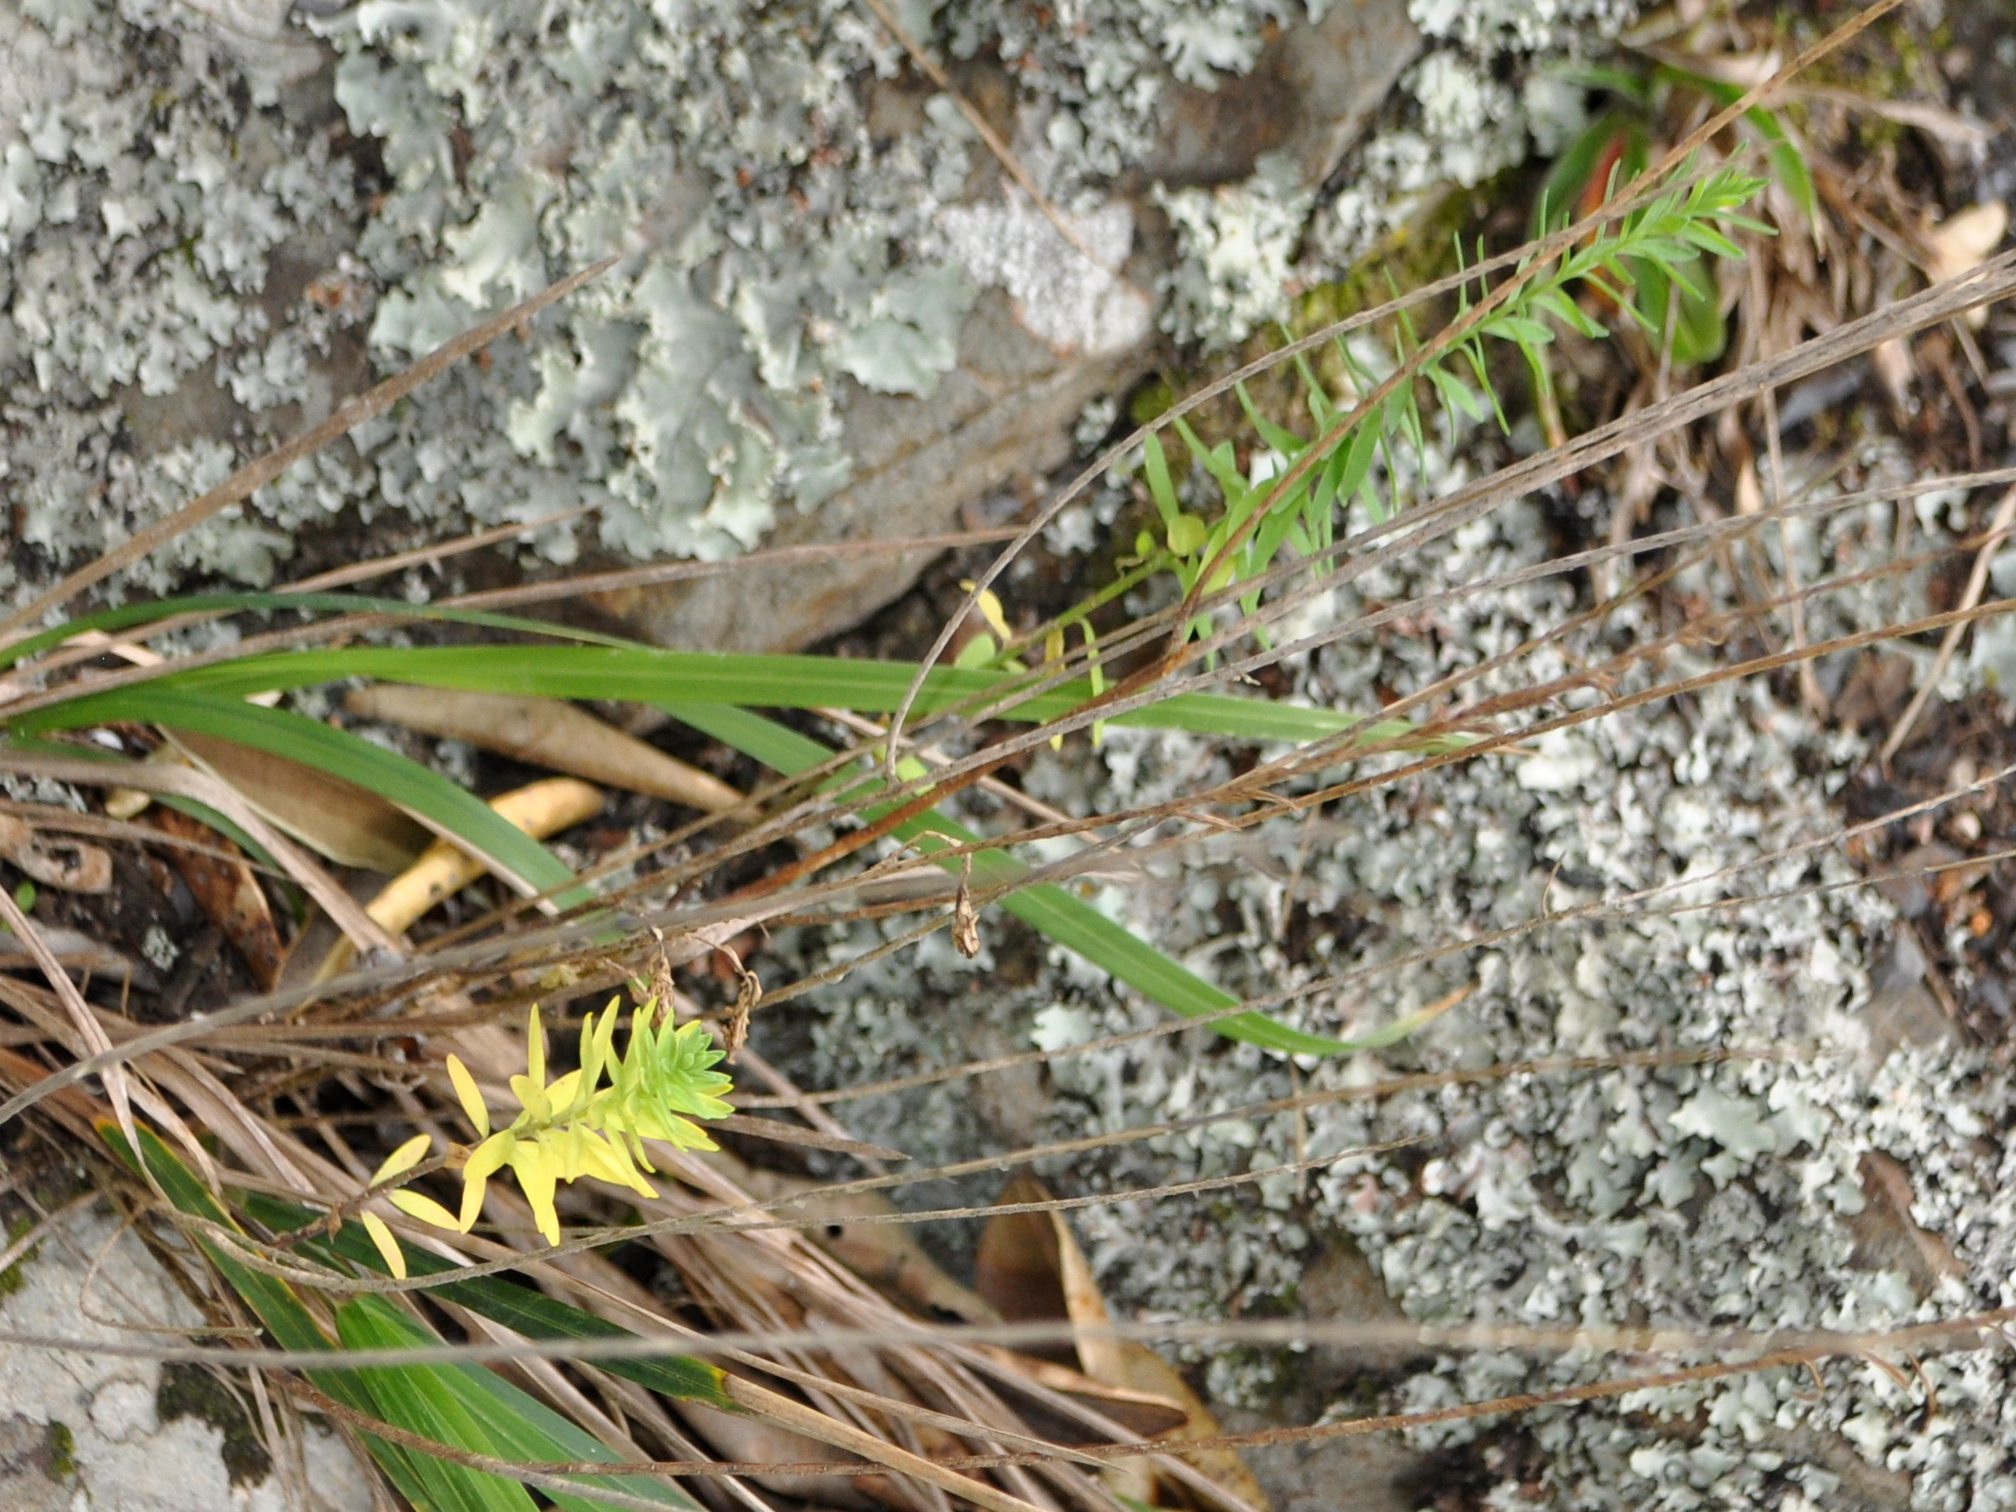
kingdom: Plantae
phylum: Tracheophyta
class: Magnoliopsida
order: Malpighiales
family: Linaceae
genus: Linum
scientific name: Linum monogynum
